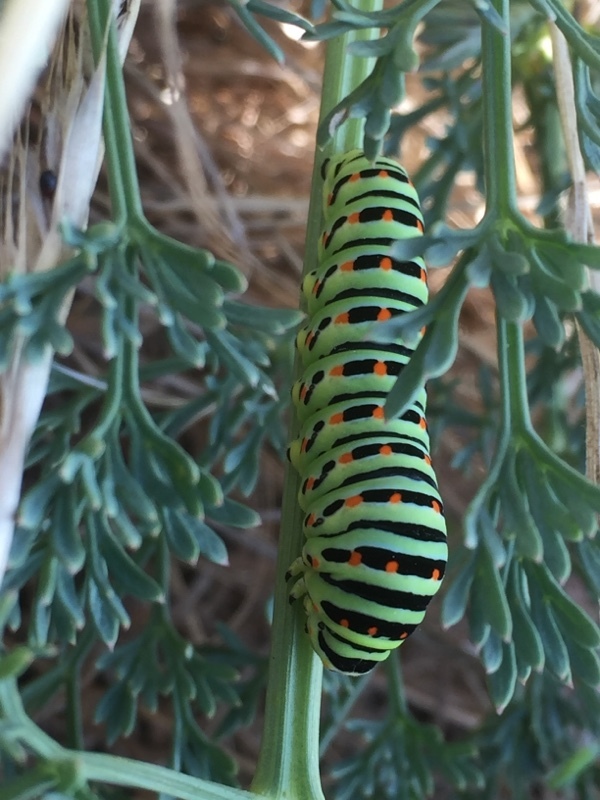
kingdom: Animalia
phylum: Arthropoda
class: Insecta
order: Lepidoptera
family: Papilionidae
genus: Papilio
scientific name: Papilio machaon
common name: Swallowtail
